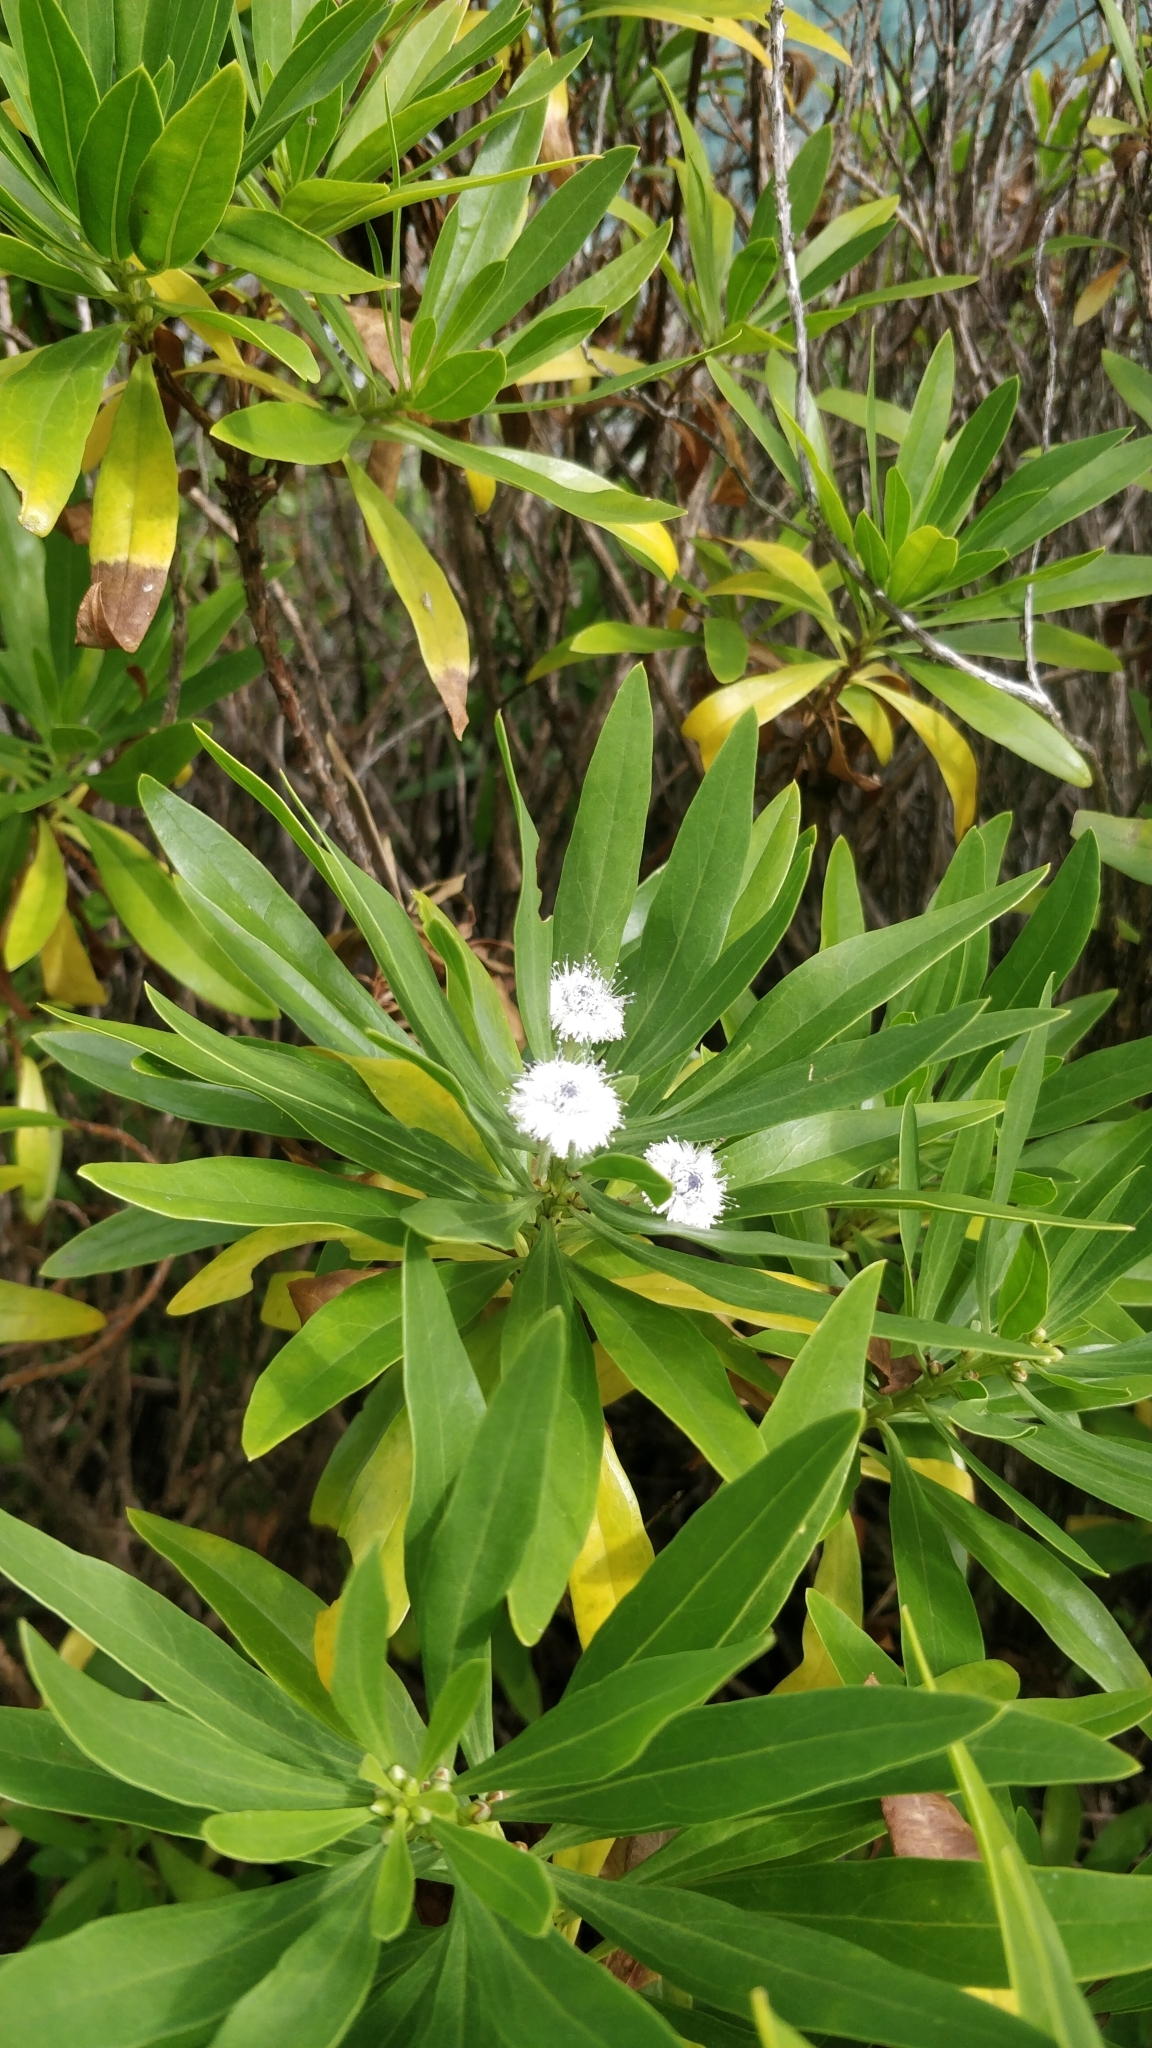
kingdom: Plantae
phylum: Tracheophyta
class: Magnoliopsida
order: Lamiales
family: Plantaginaceae
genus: Globularia
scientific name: Globularia salicina
